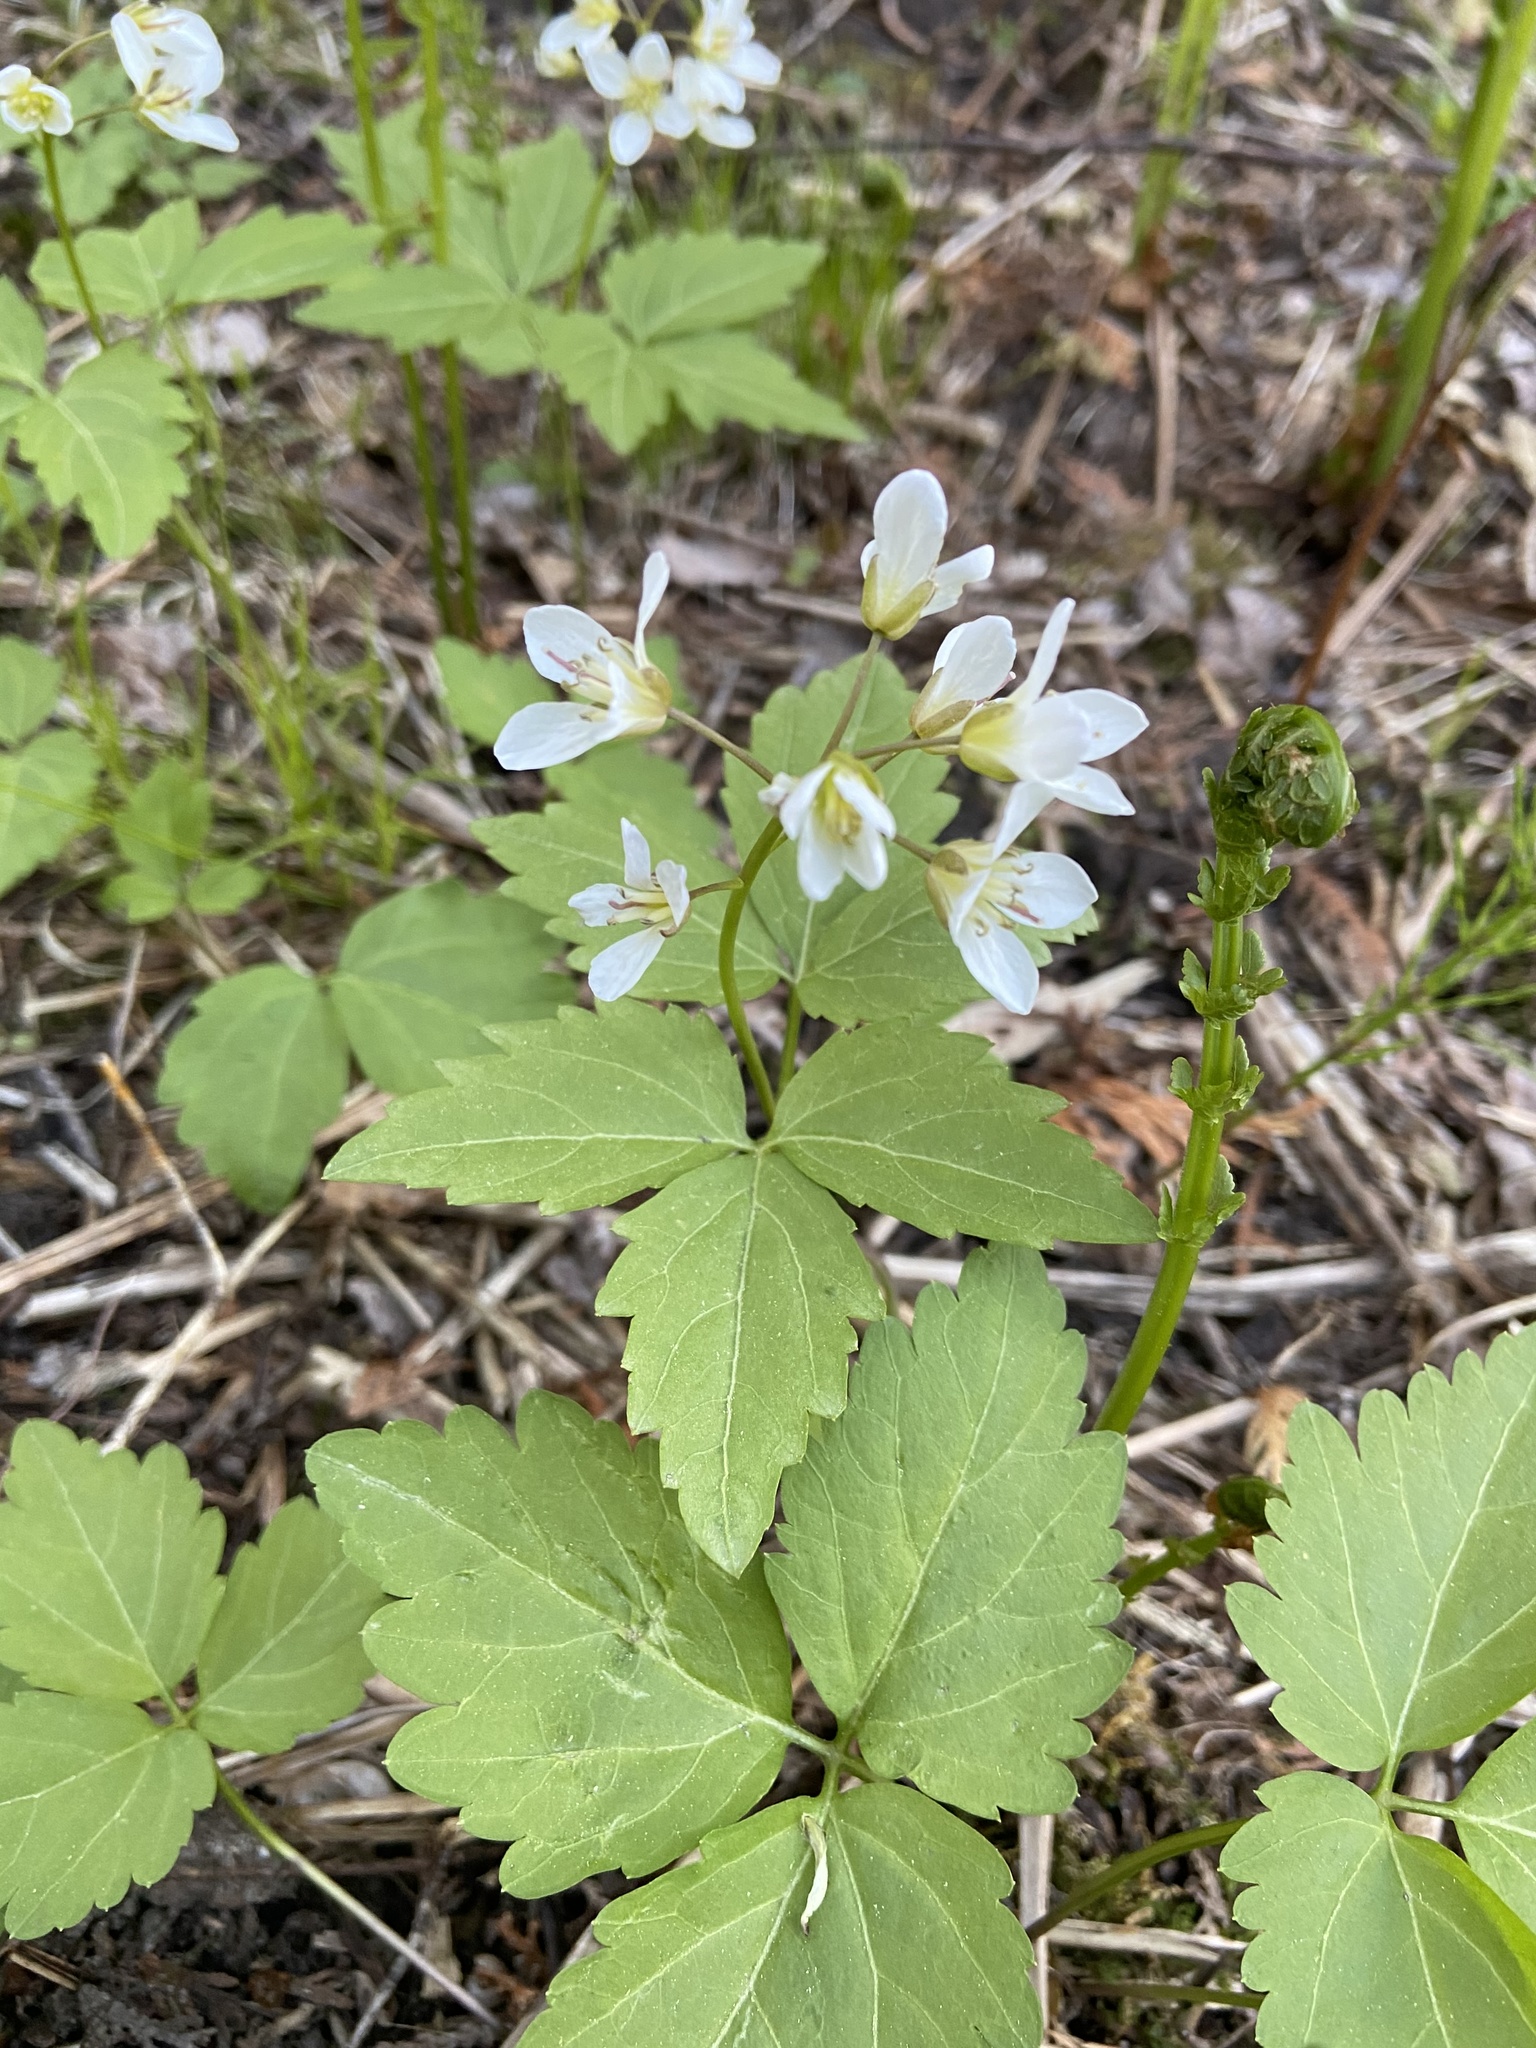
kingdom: Plantae
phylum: Tracheophyta
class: Magnoliopsida
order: Brassicales
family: Brassicaceae
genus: Cardamine
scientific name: Cardamine diphylla
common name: Broad-leaved toothwort
